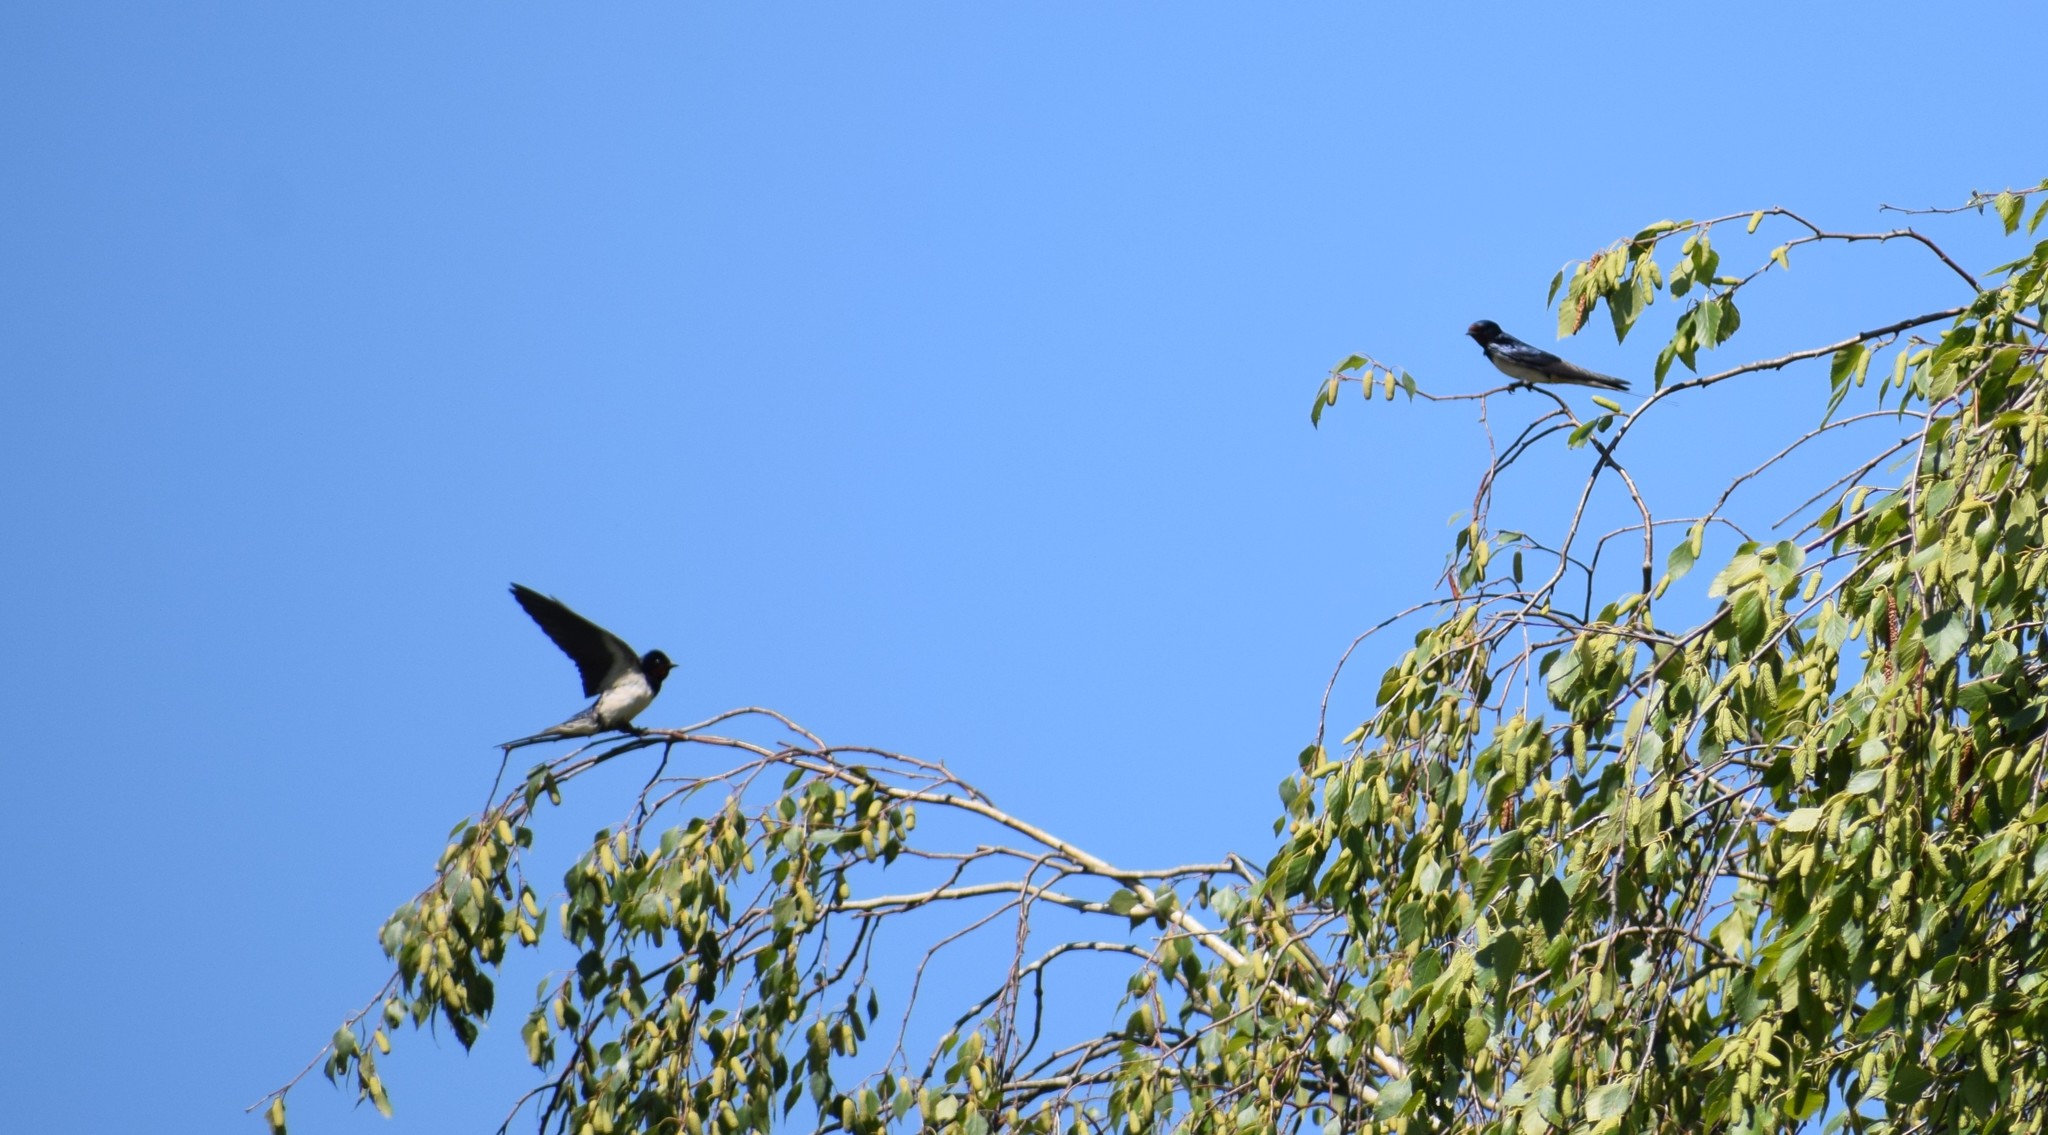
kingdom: Animalia
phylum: Chordata
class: Aves
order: Passeriformes
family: Hirundinidae
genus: Hirundo
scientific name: Hirundo rustica
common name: Barn swallow
